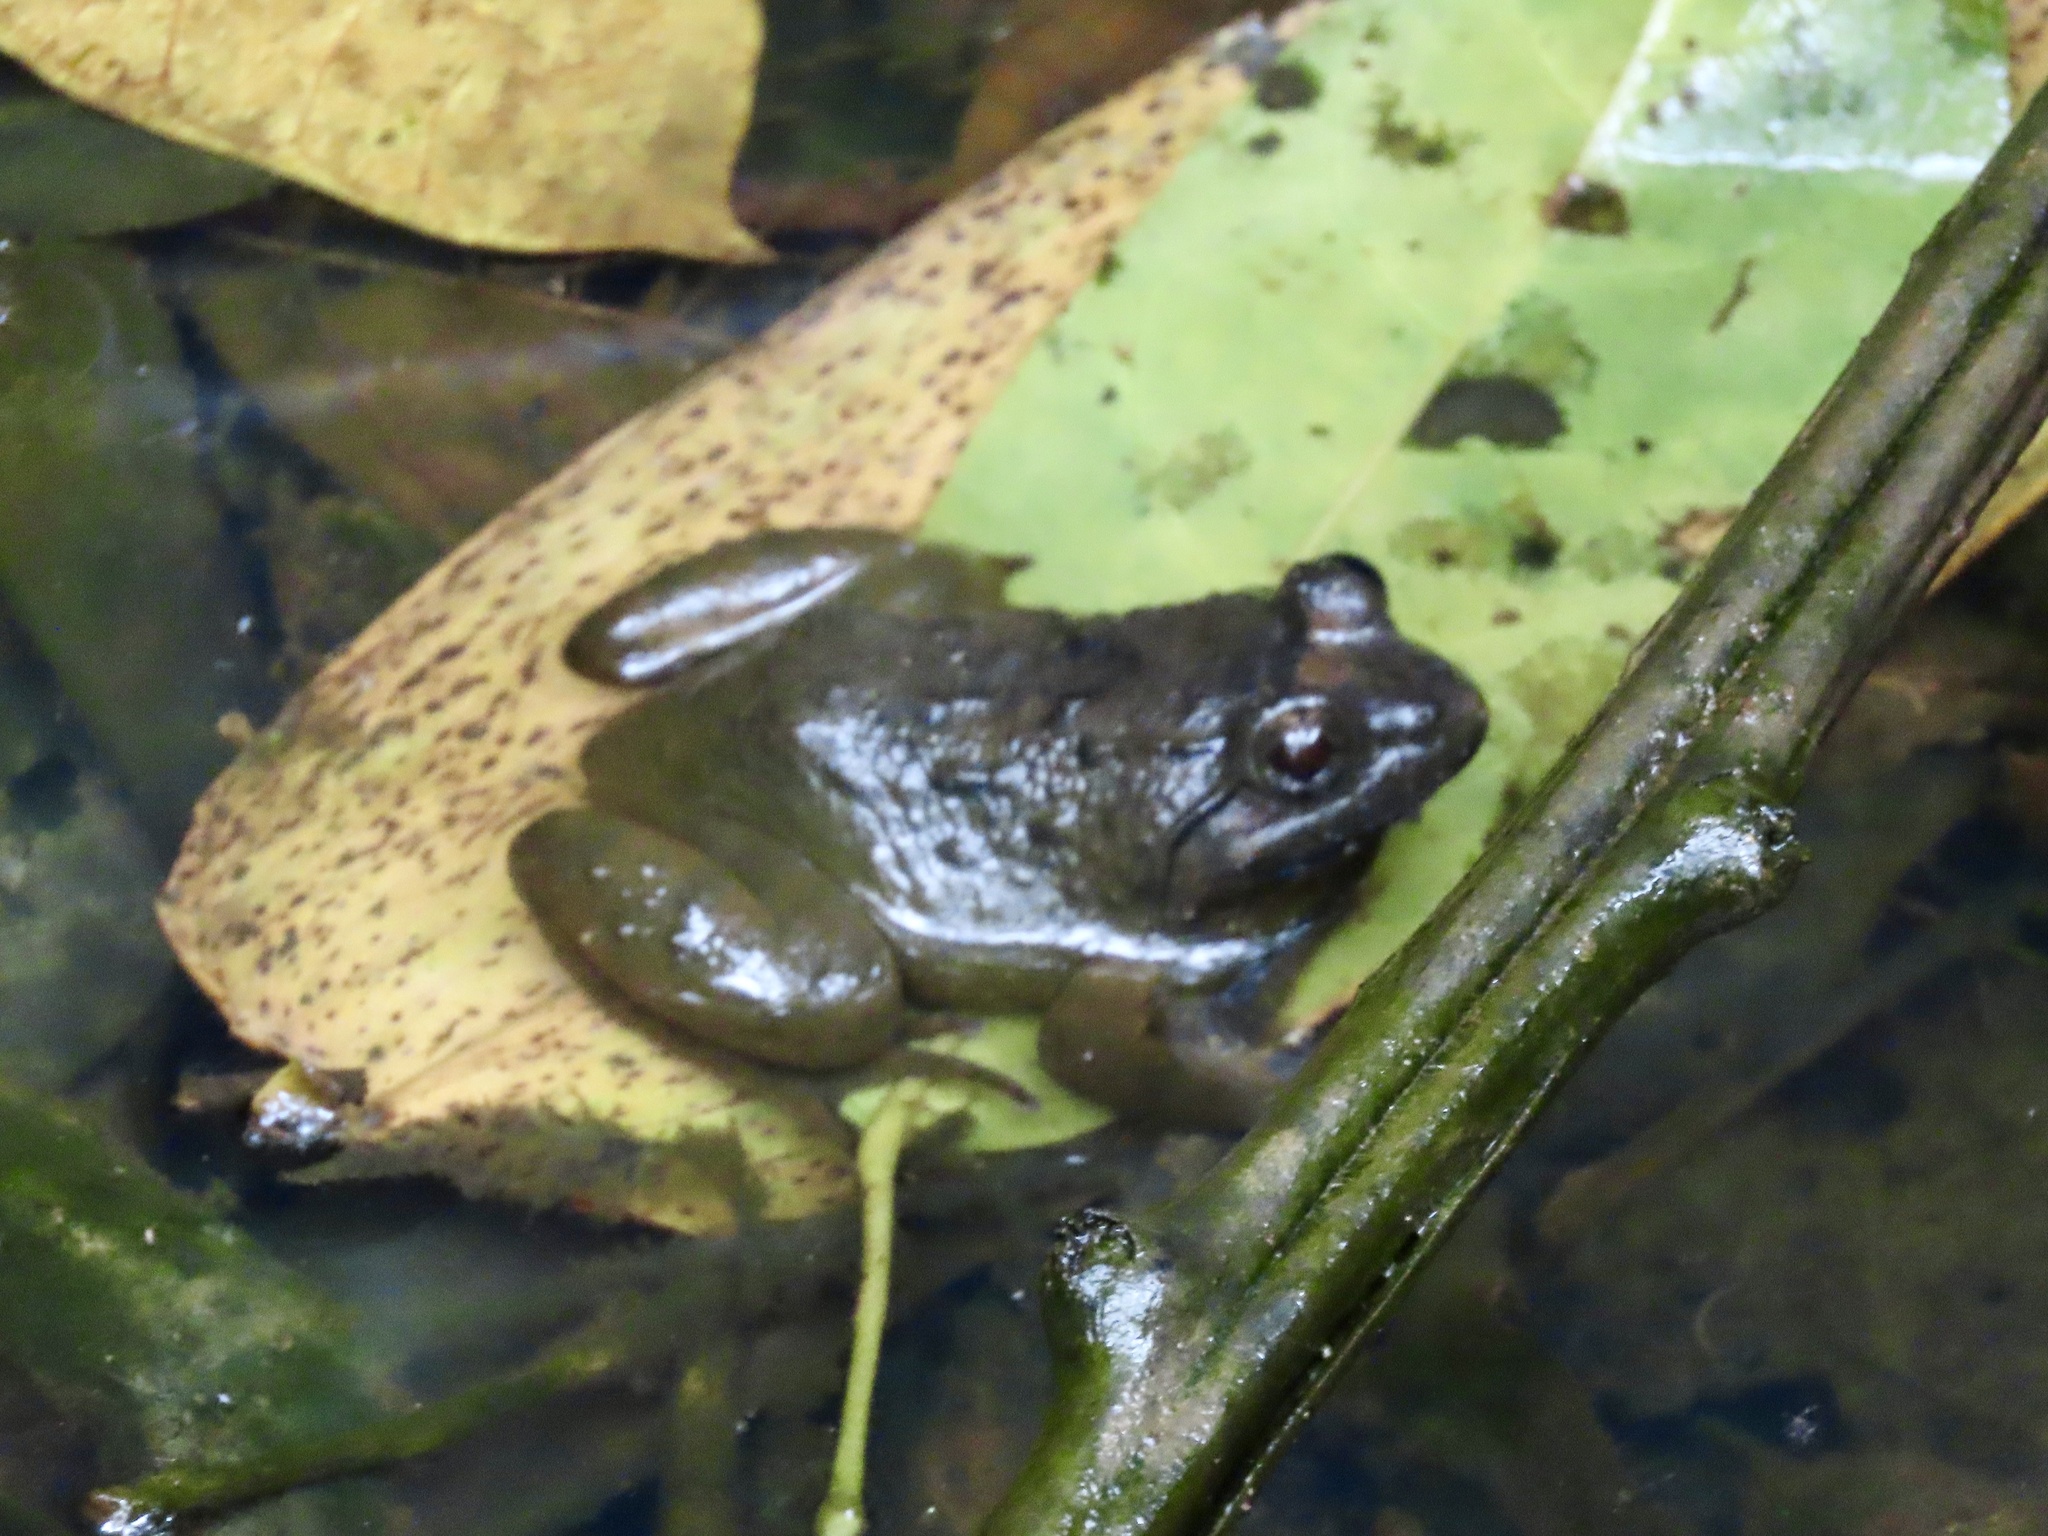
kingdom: Animalia
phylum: Chordata
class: Amphibia
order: Anura
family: Dicroglossidae
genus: Limnonectes
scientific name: Limnonectes fujianensis
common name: Fujian large-headed frog
